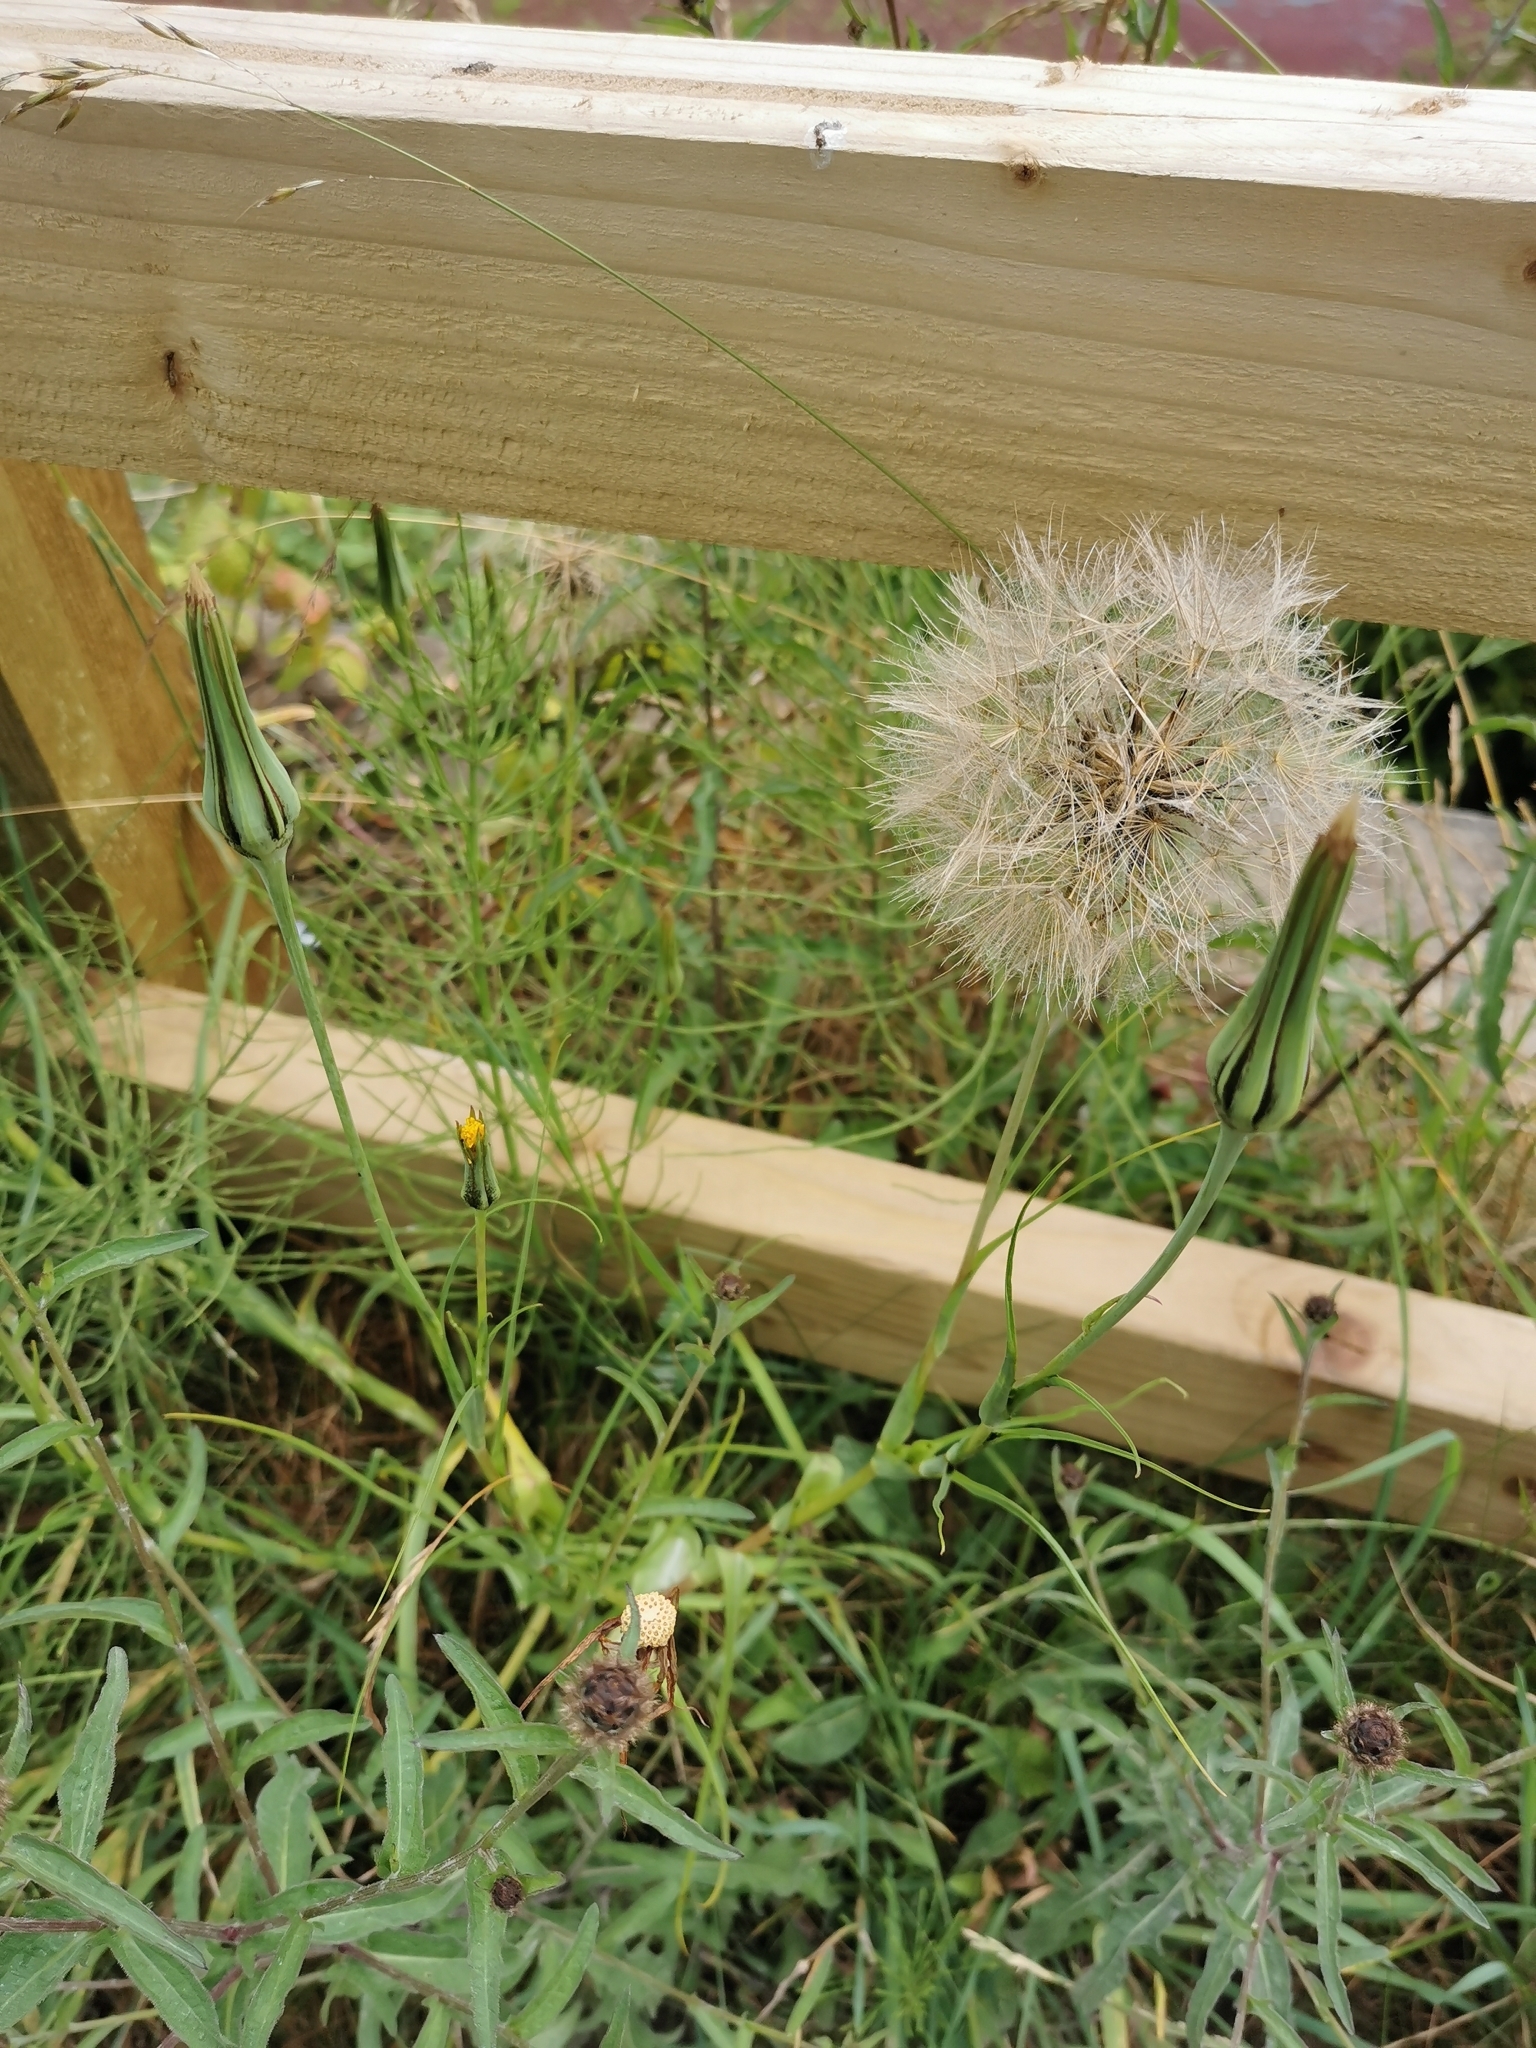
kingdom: Plantae
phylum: Tracheophyta
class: Magnoliopsida
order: Asterales
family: Asteraceae
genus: Tragopogon
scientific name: Tragopogon pratensis
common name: Goat's-beard
